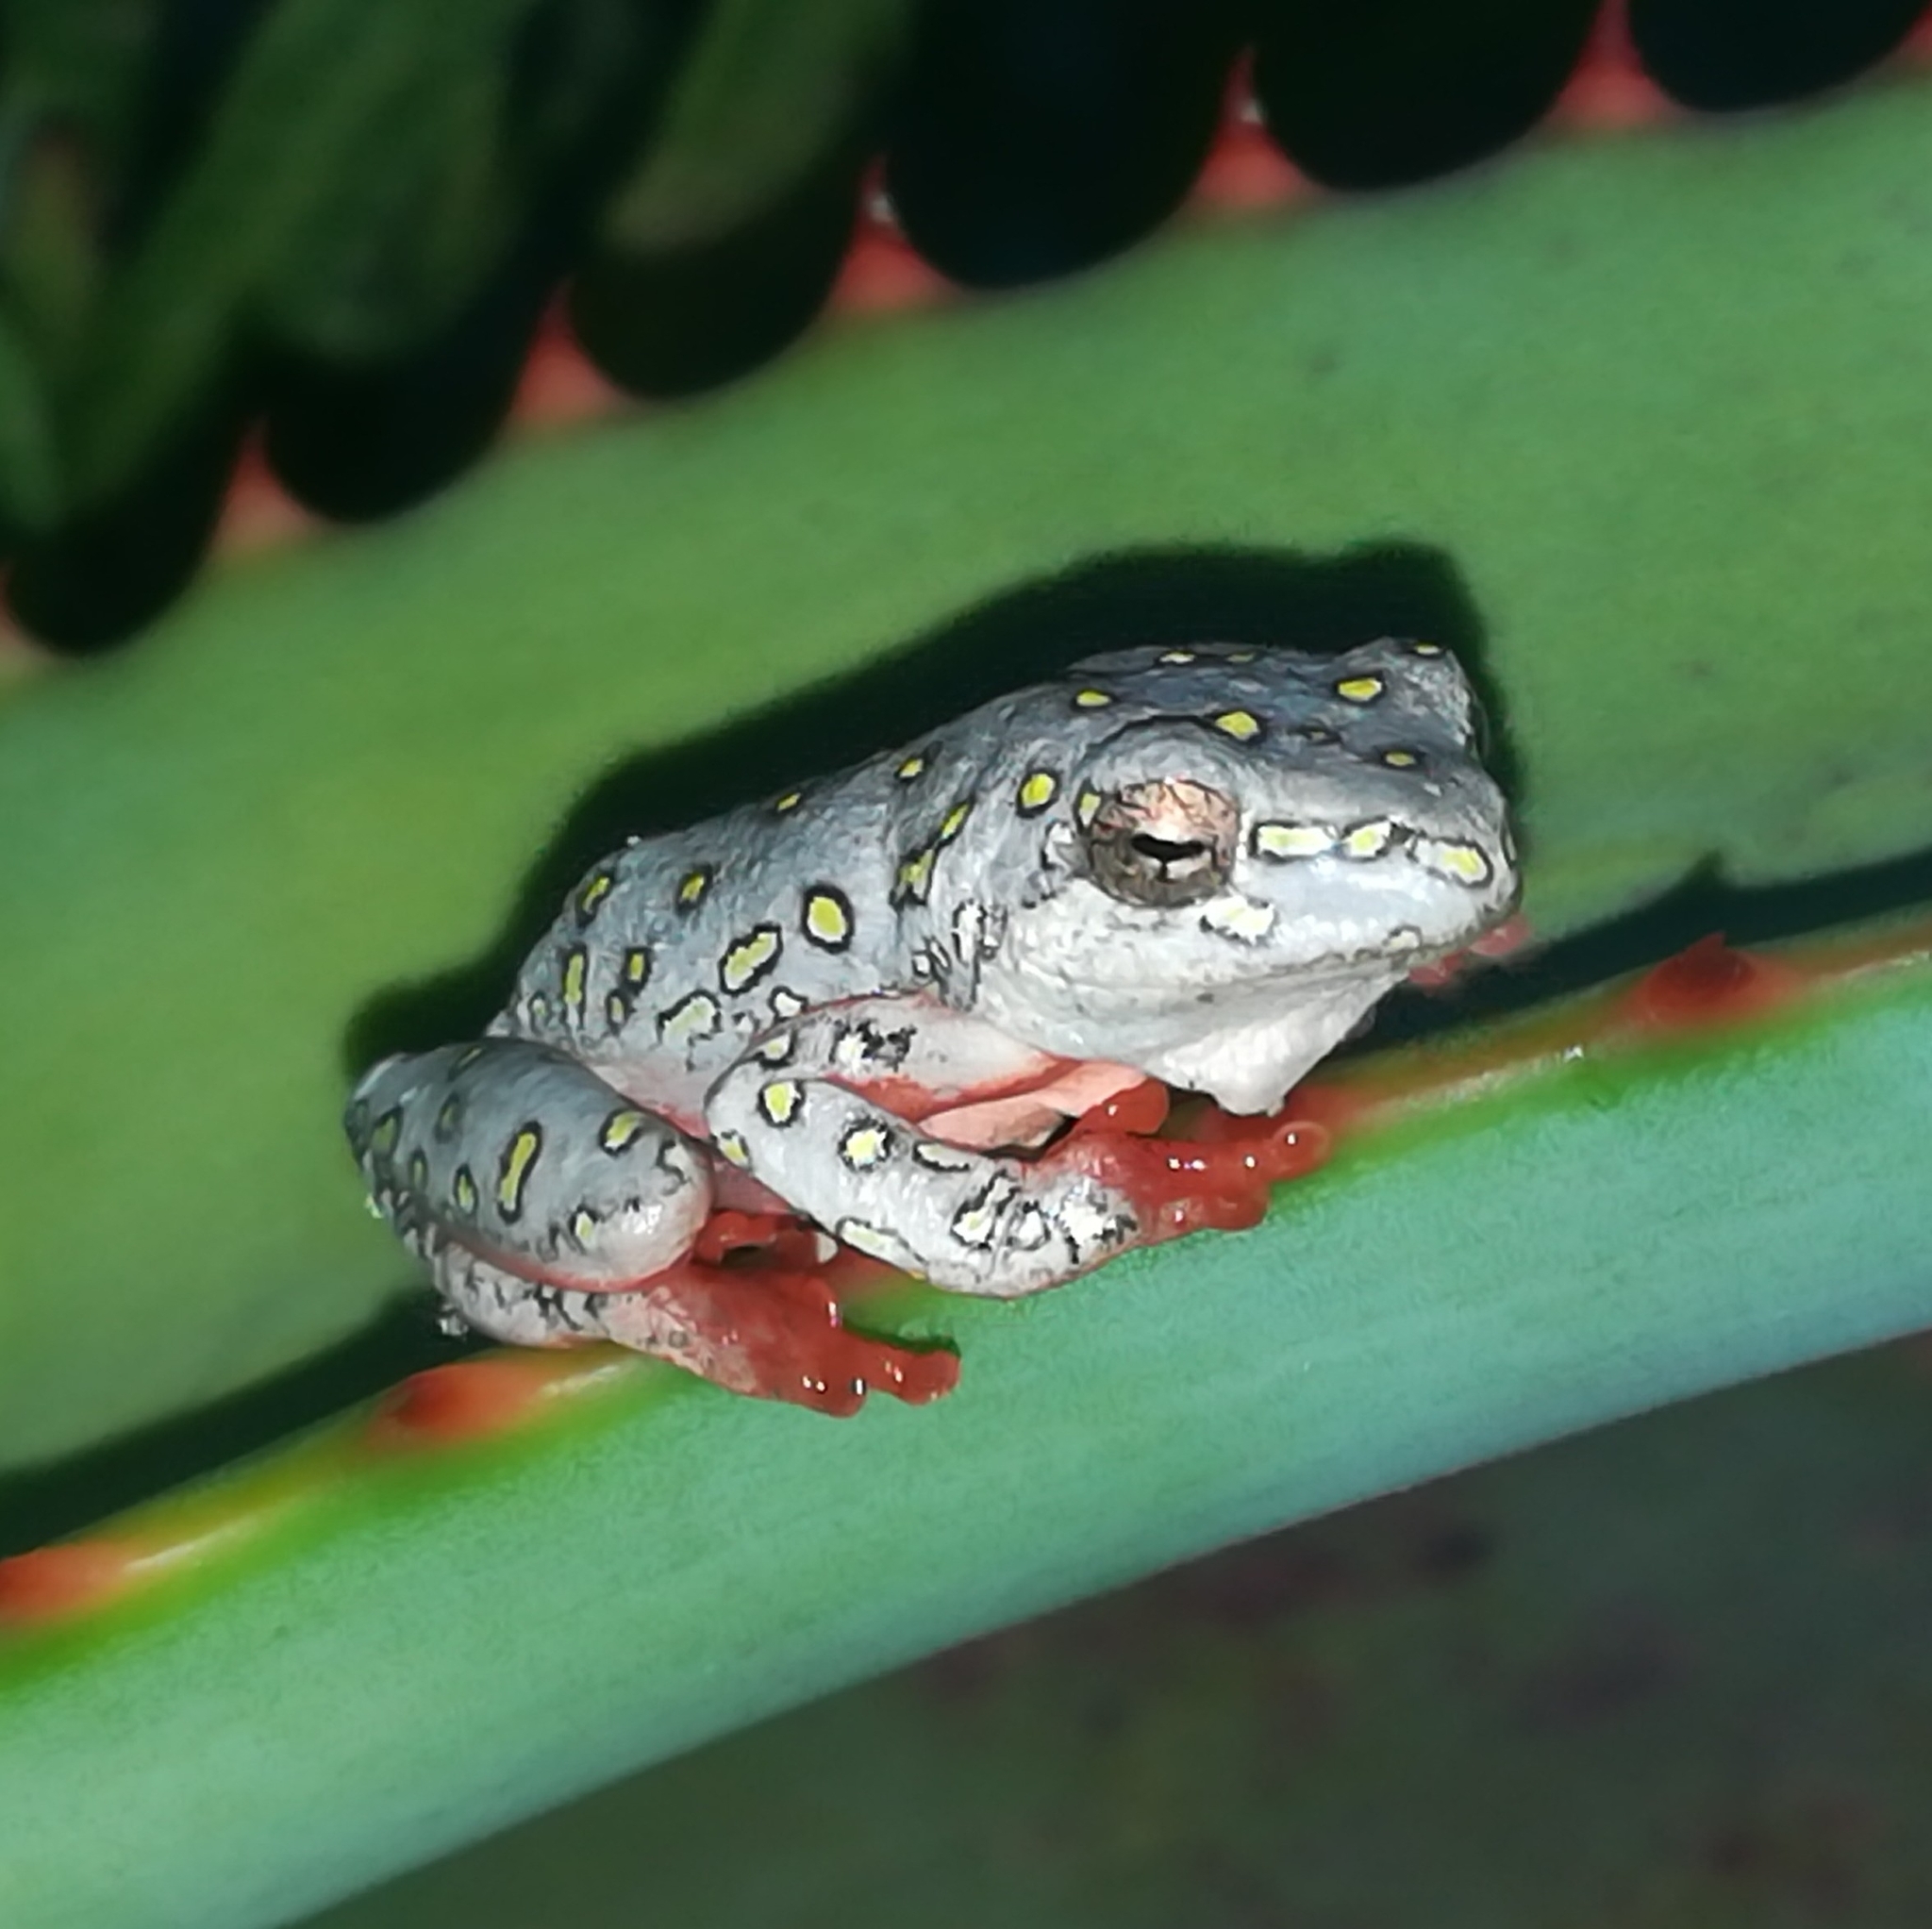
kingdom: Animalia
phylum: Chordata
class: Amphibia
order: Anura
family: Hyperoliidae
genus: Hyperolius
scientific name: Hyperolius marmoratus
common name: Painted reed frog
